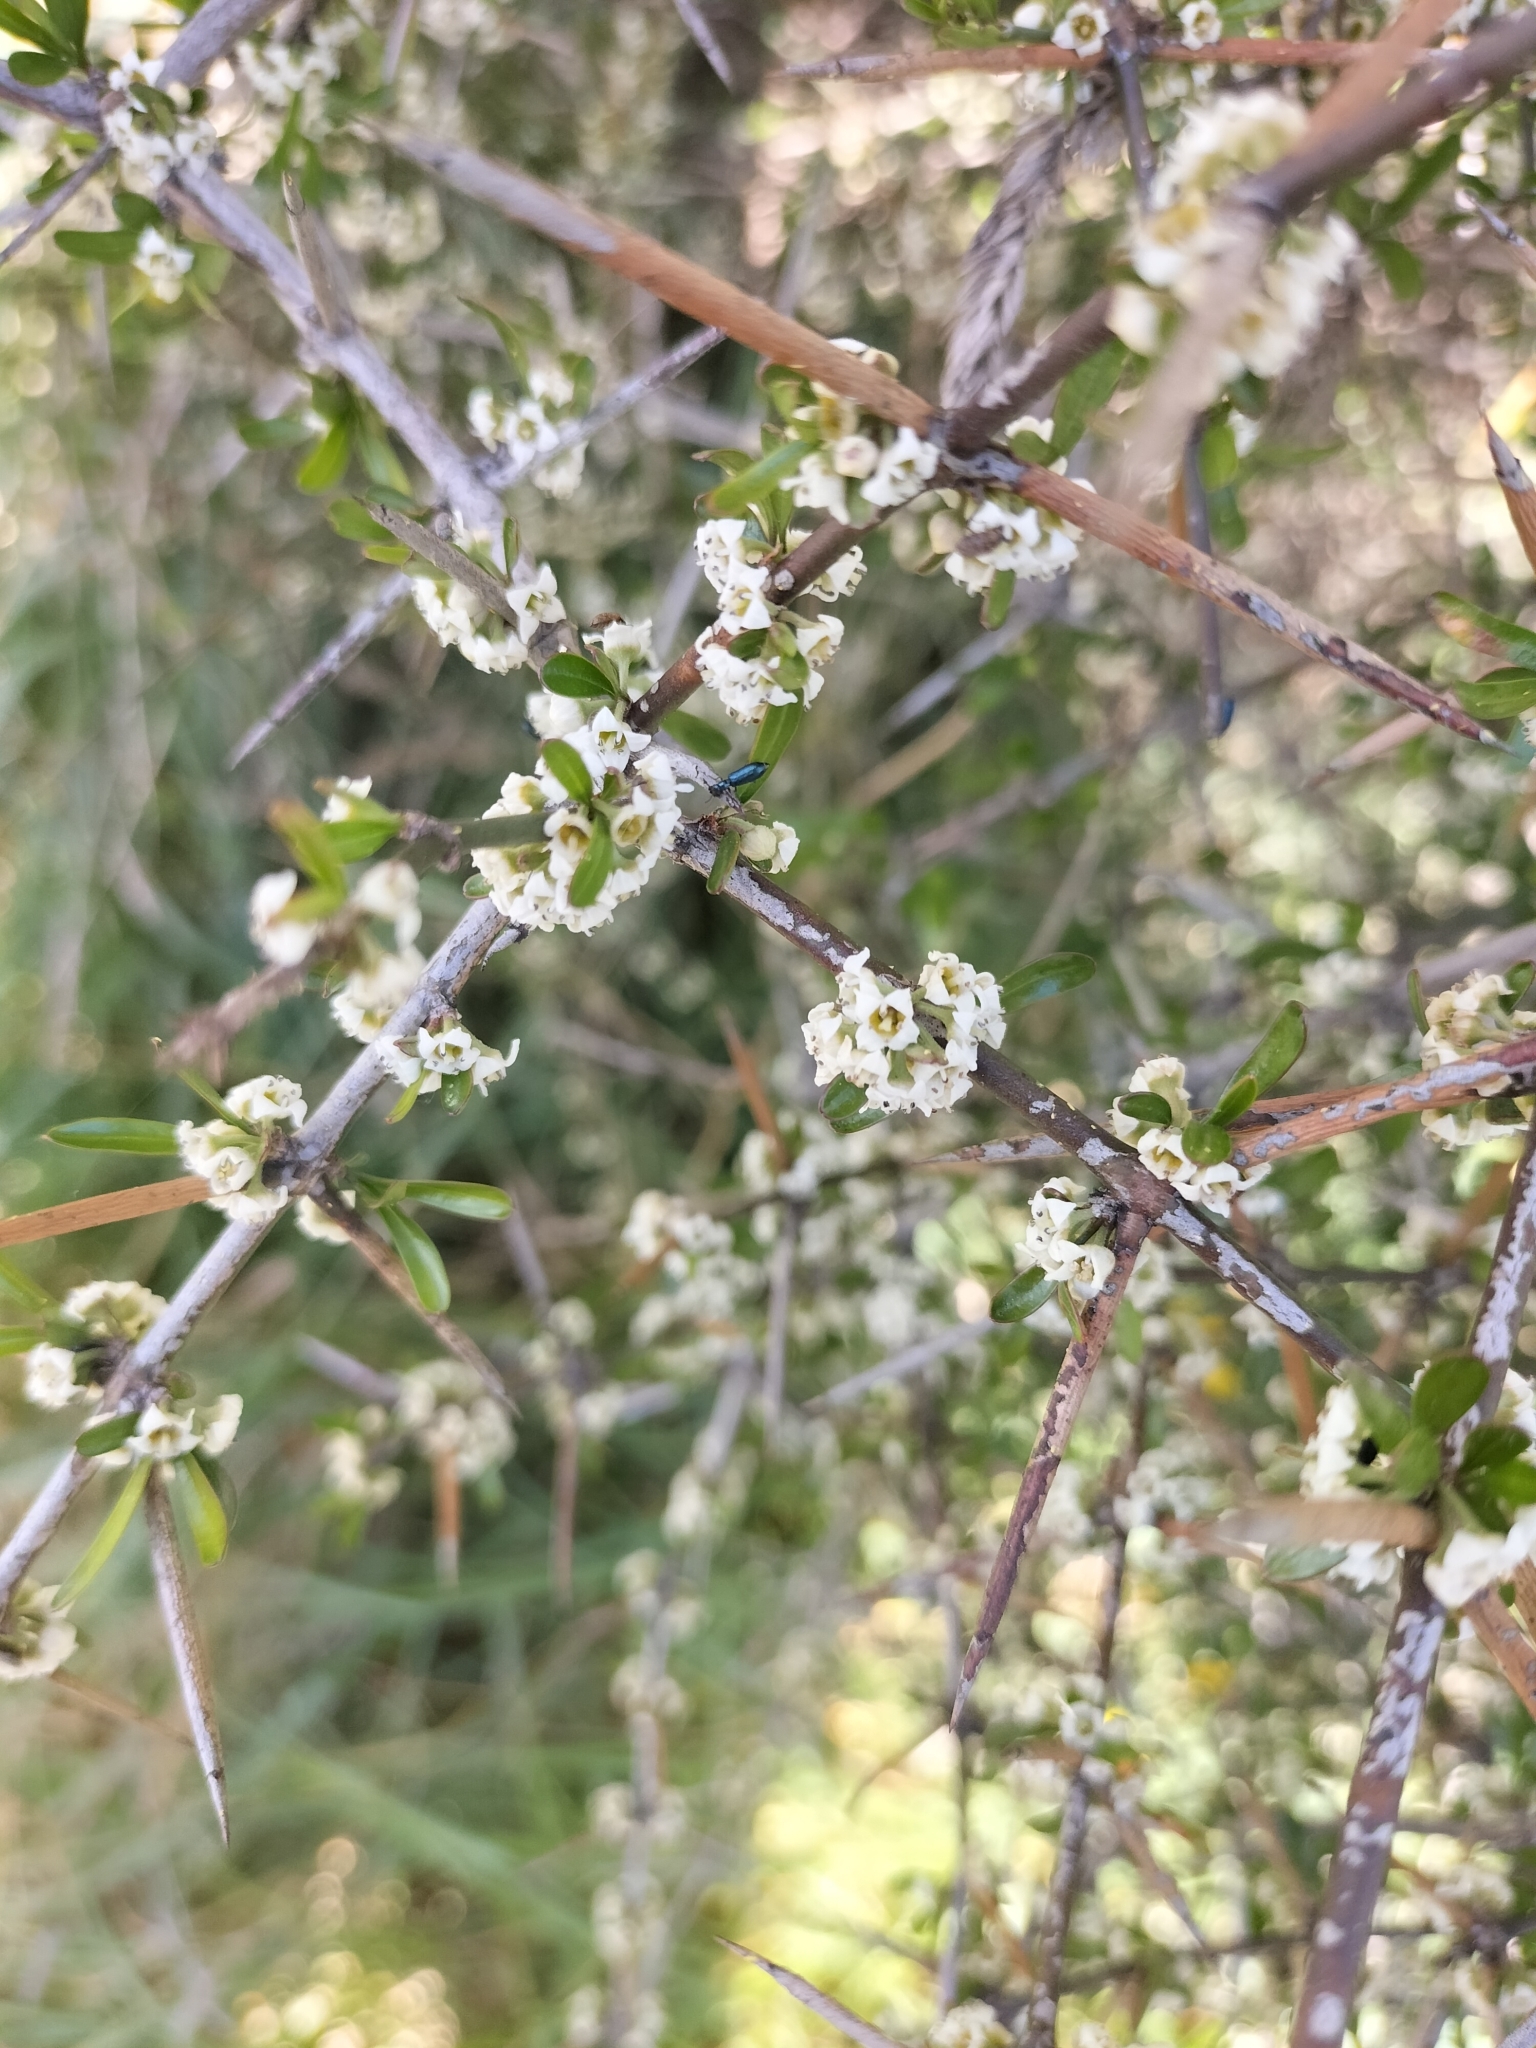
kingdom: Plantae
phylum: Tracheophyta
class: Magnoliopsida
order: Rosales
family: Rhamnaceae
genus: Discaria
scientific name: Discaria toumatou
